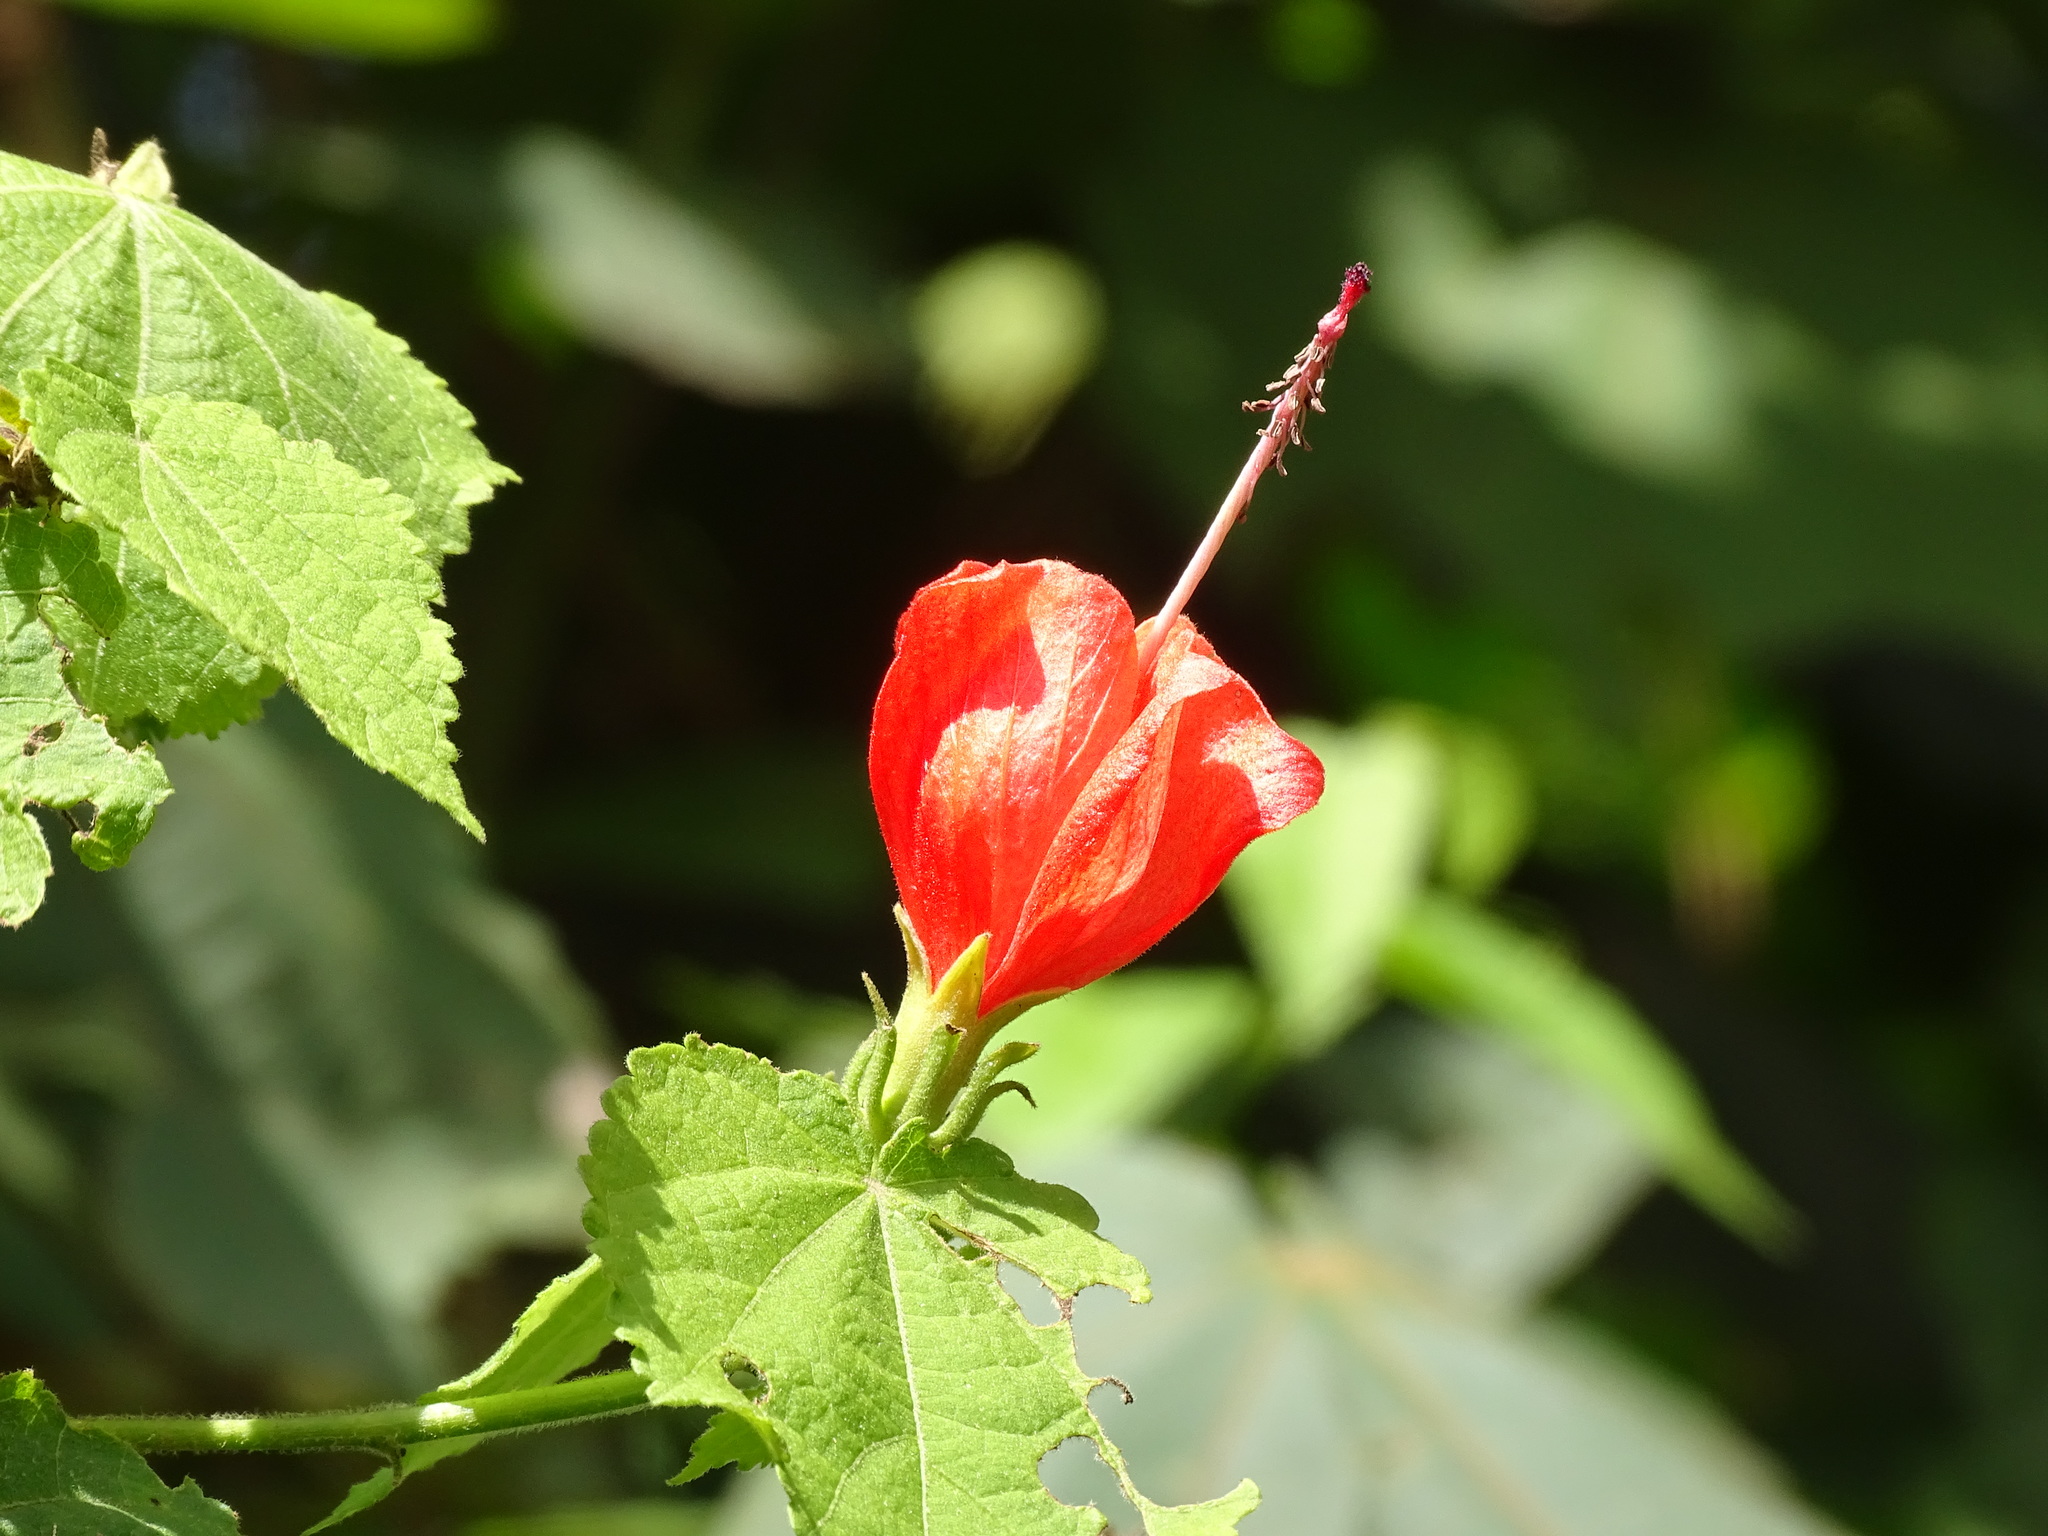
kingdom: Plantae
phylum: Tracheophyta
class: Magnoliopsida
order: Malvales
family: Malvaceae
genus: Malvaviscus
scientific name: Malvaviscus arboreus
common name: Wax mallow
